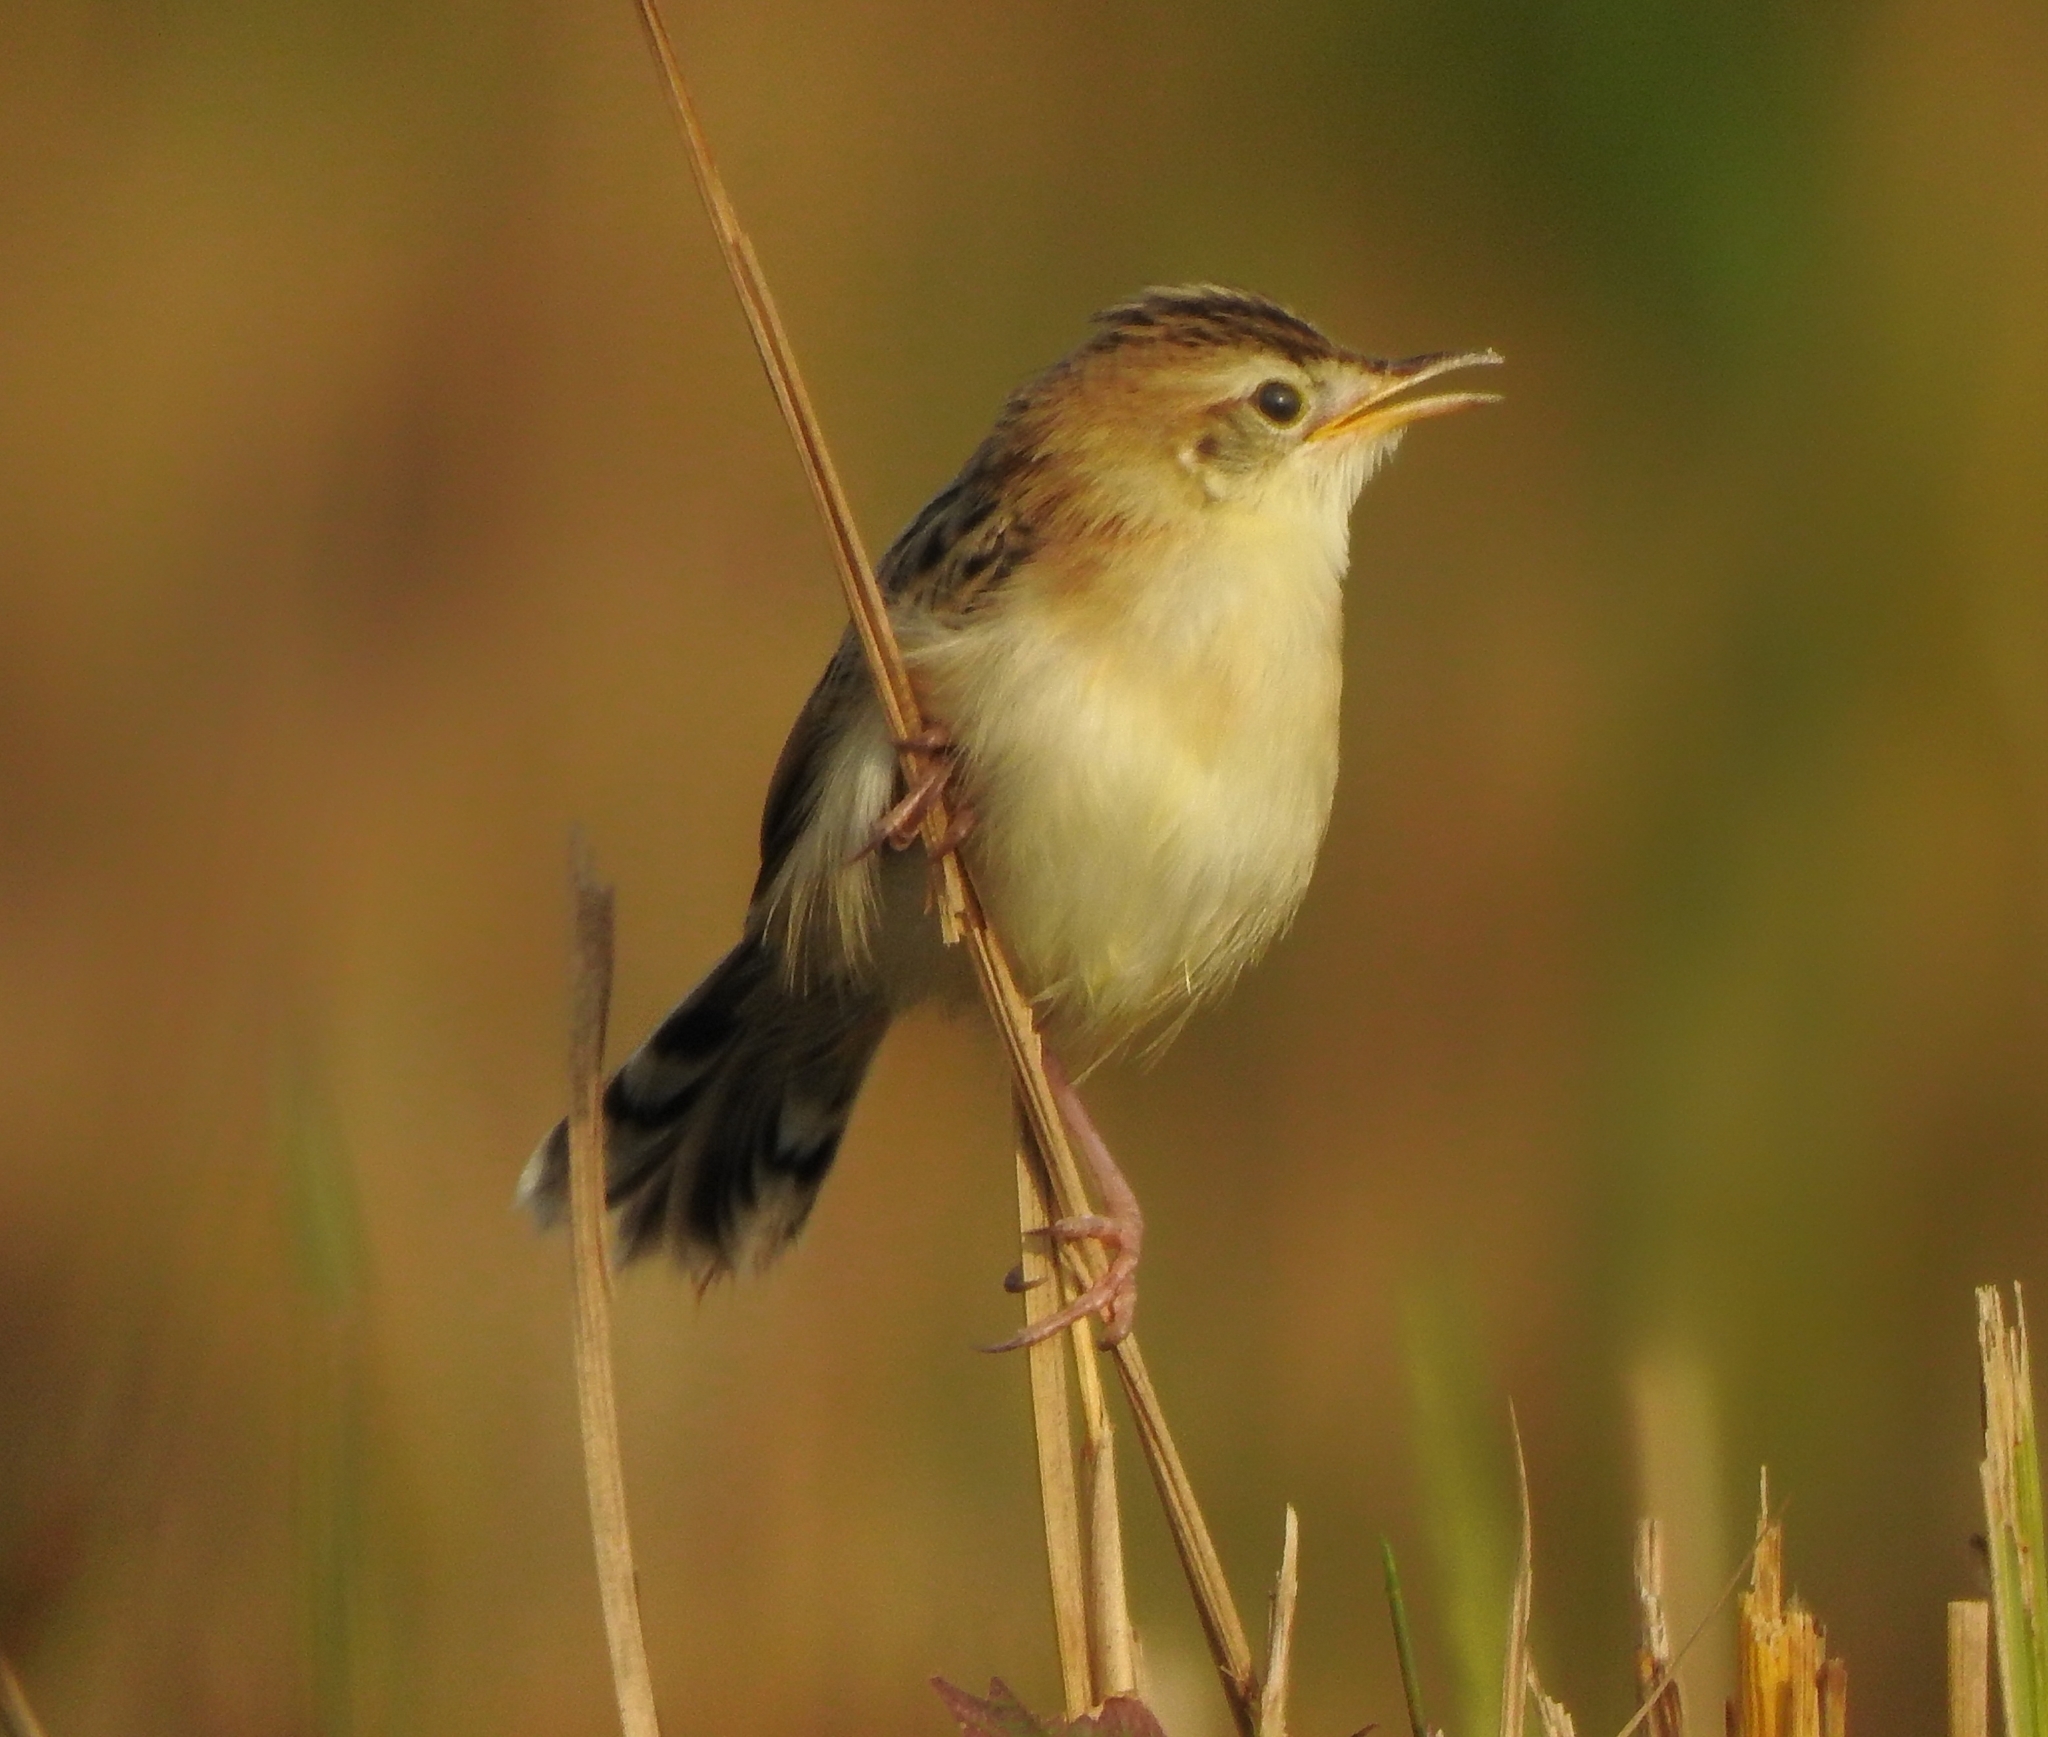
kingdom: Animalia
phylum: Chordata
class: Aves
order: Passeriformes
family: Cisticolidae
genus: Cisticola
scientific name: Cisticola juncidis
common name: Zitting cisticola
